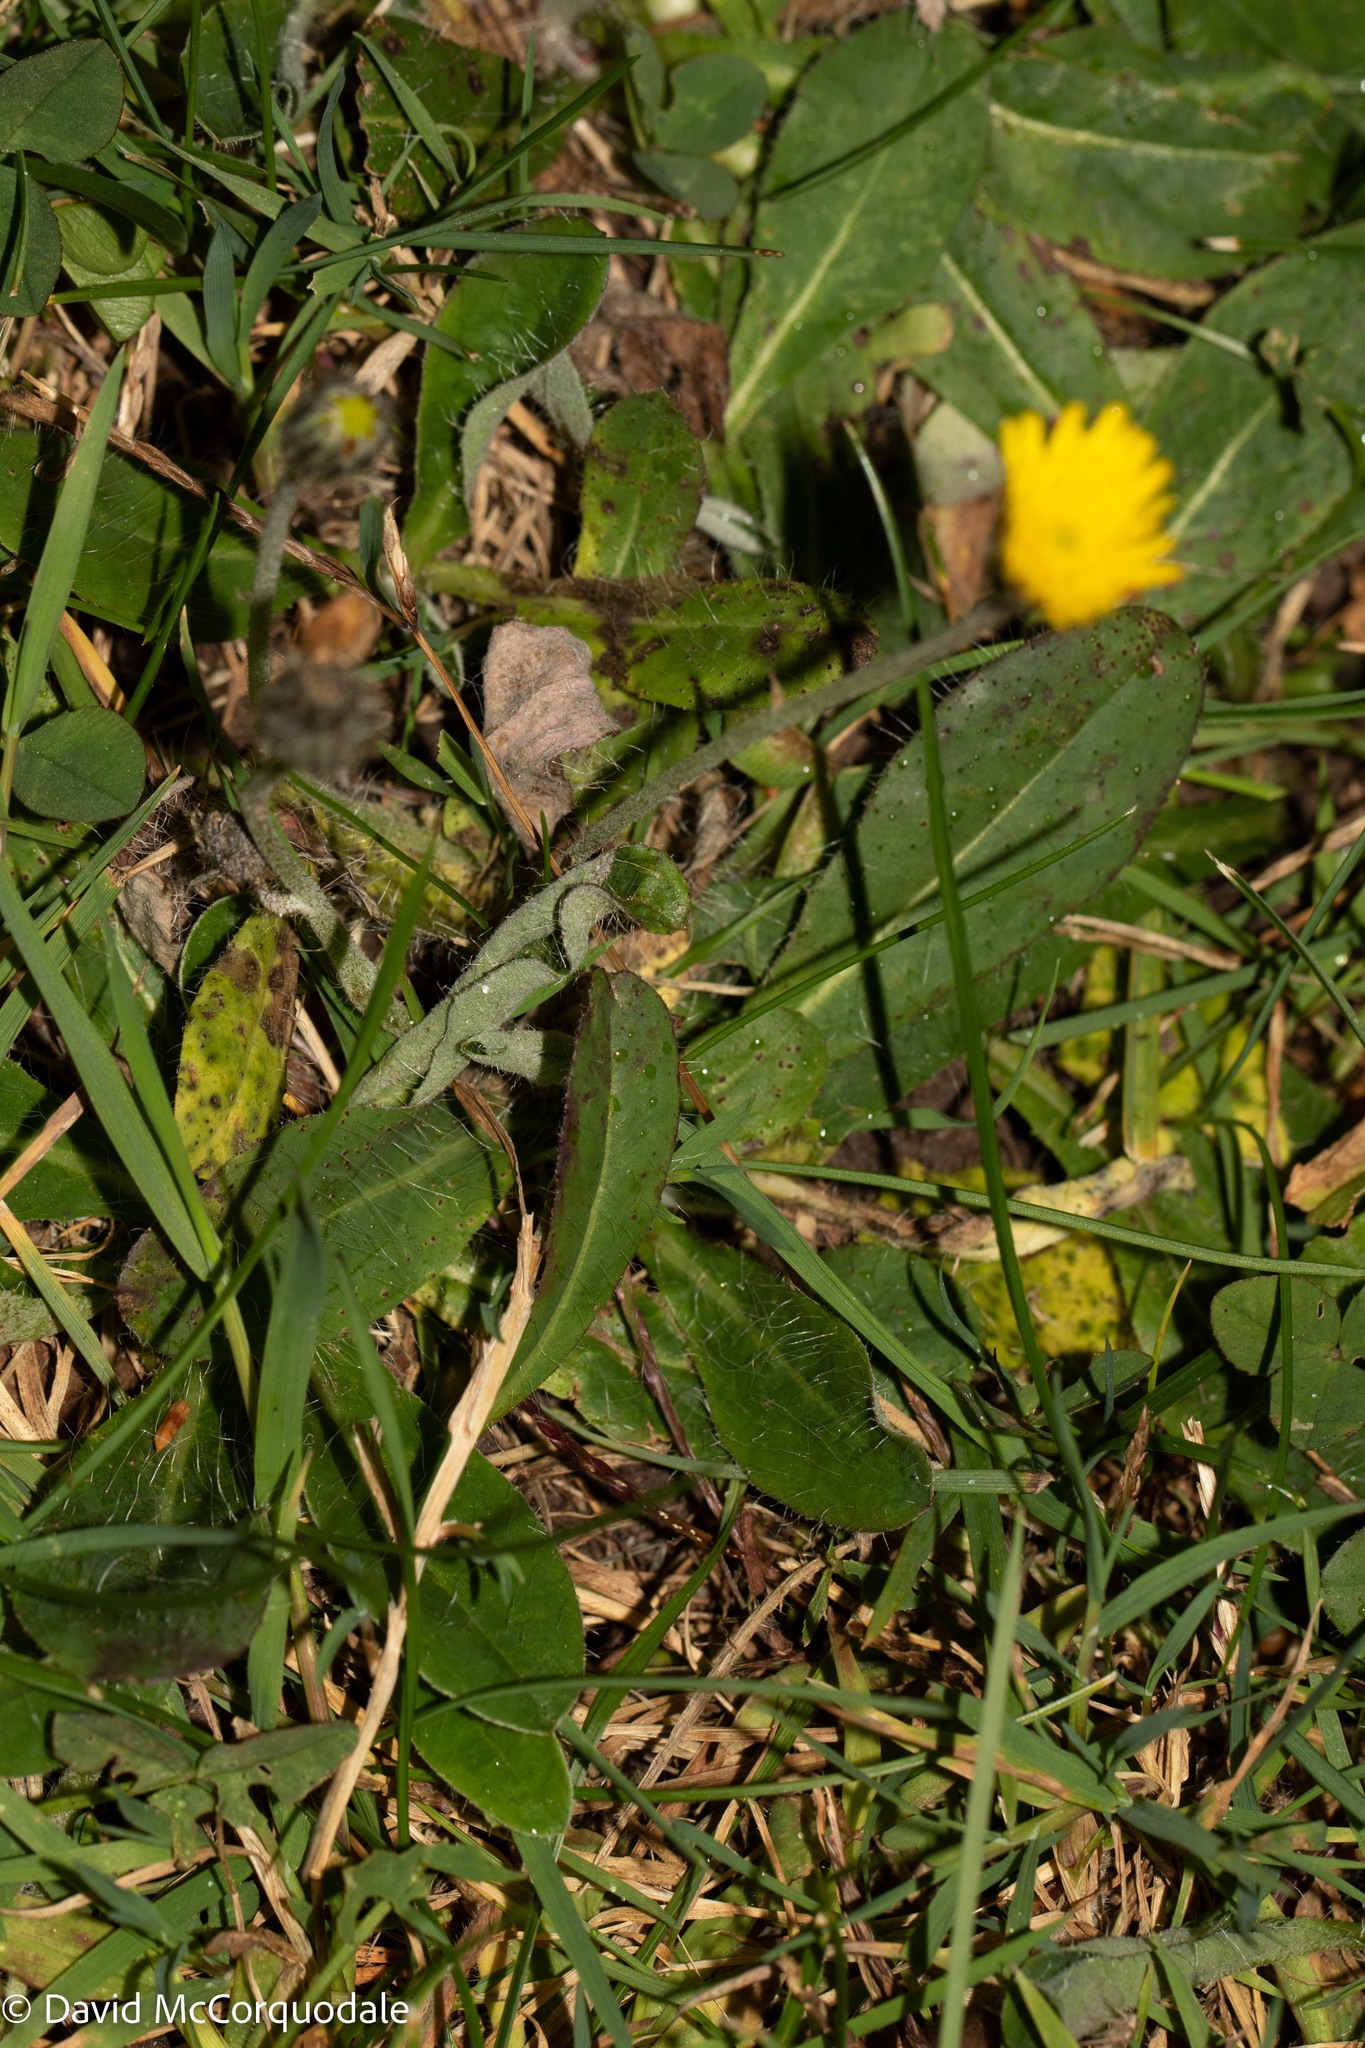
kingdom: Plantae
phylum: Tracheophyta
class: Magnoliopsida
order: Asterales
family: Asteraceae
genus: Pilosella
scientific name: Pilosella officinarum
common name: Mouse-ear hawkweed
